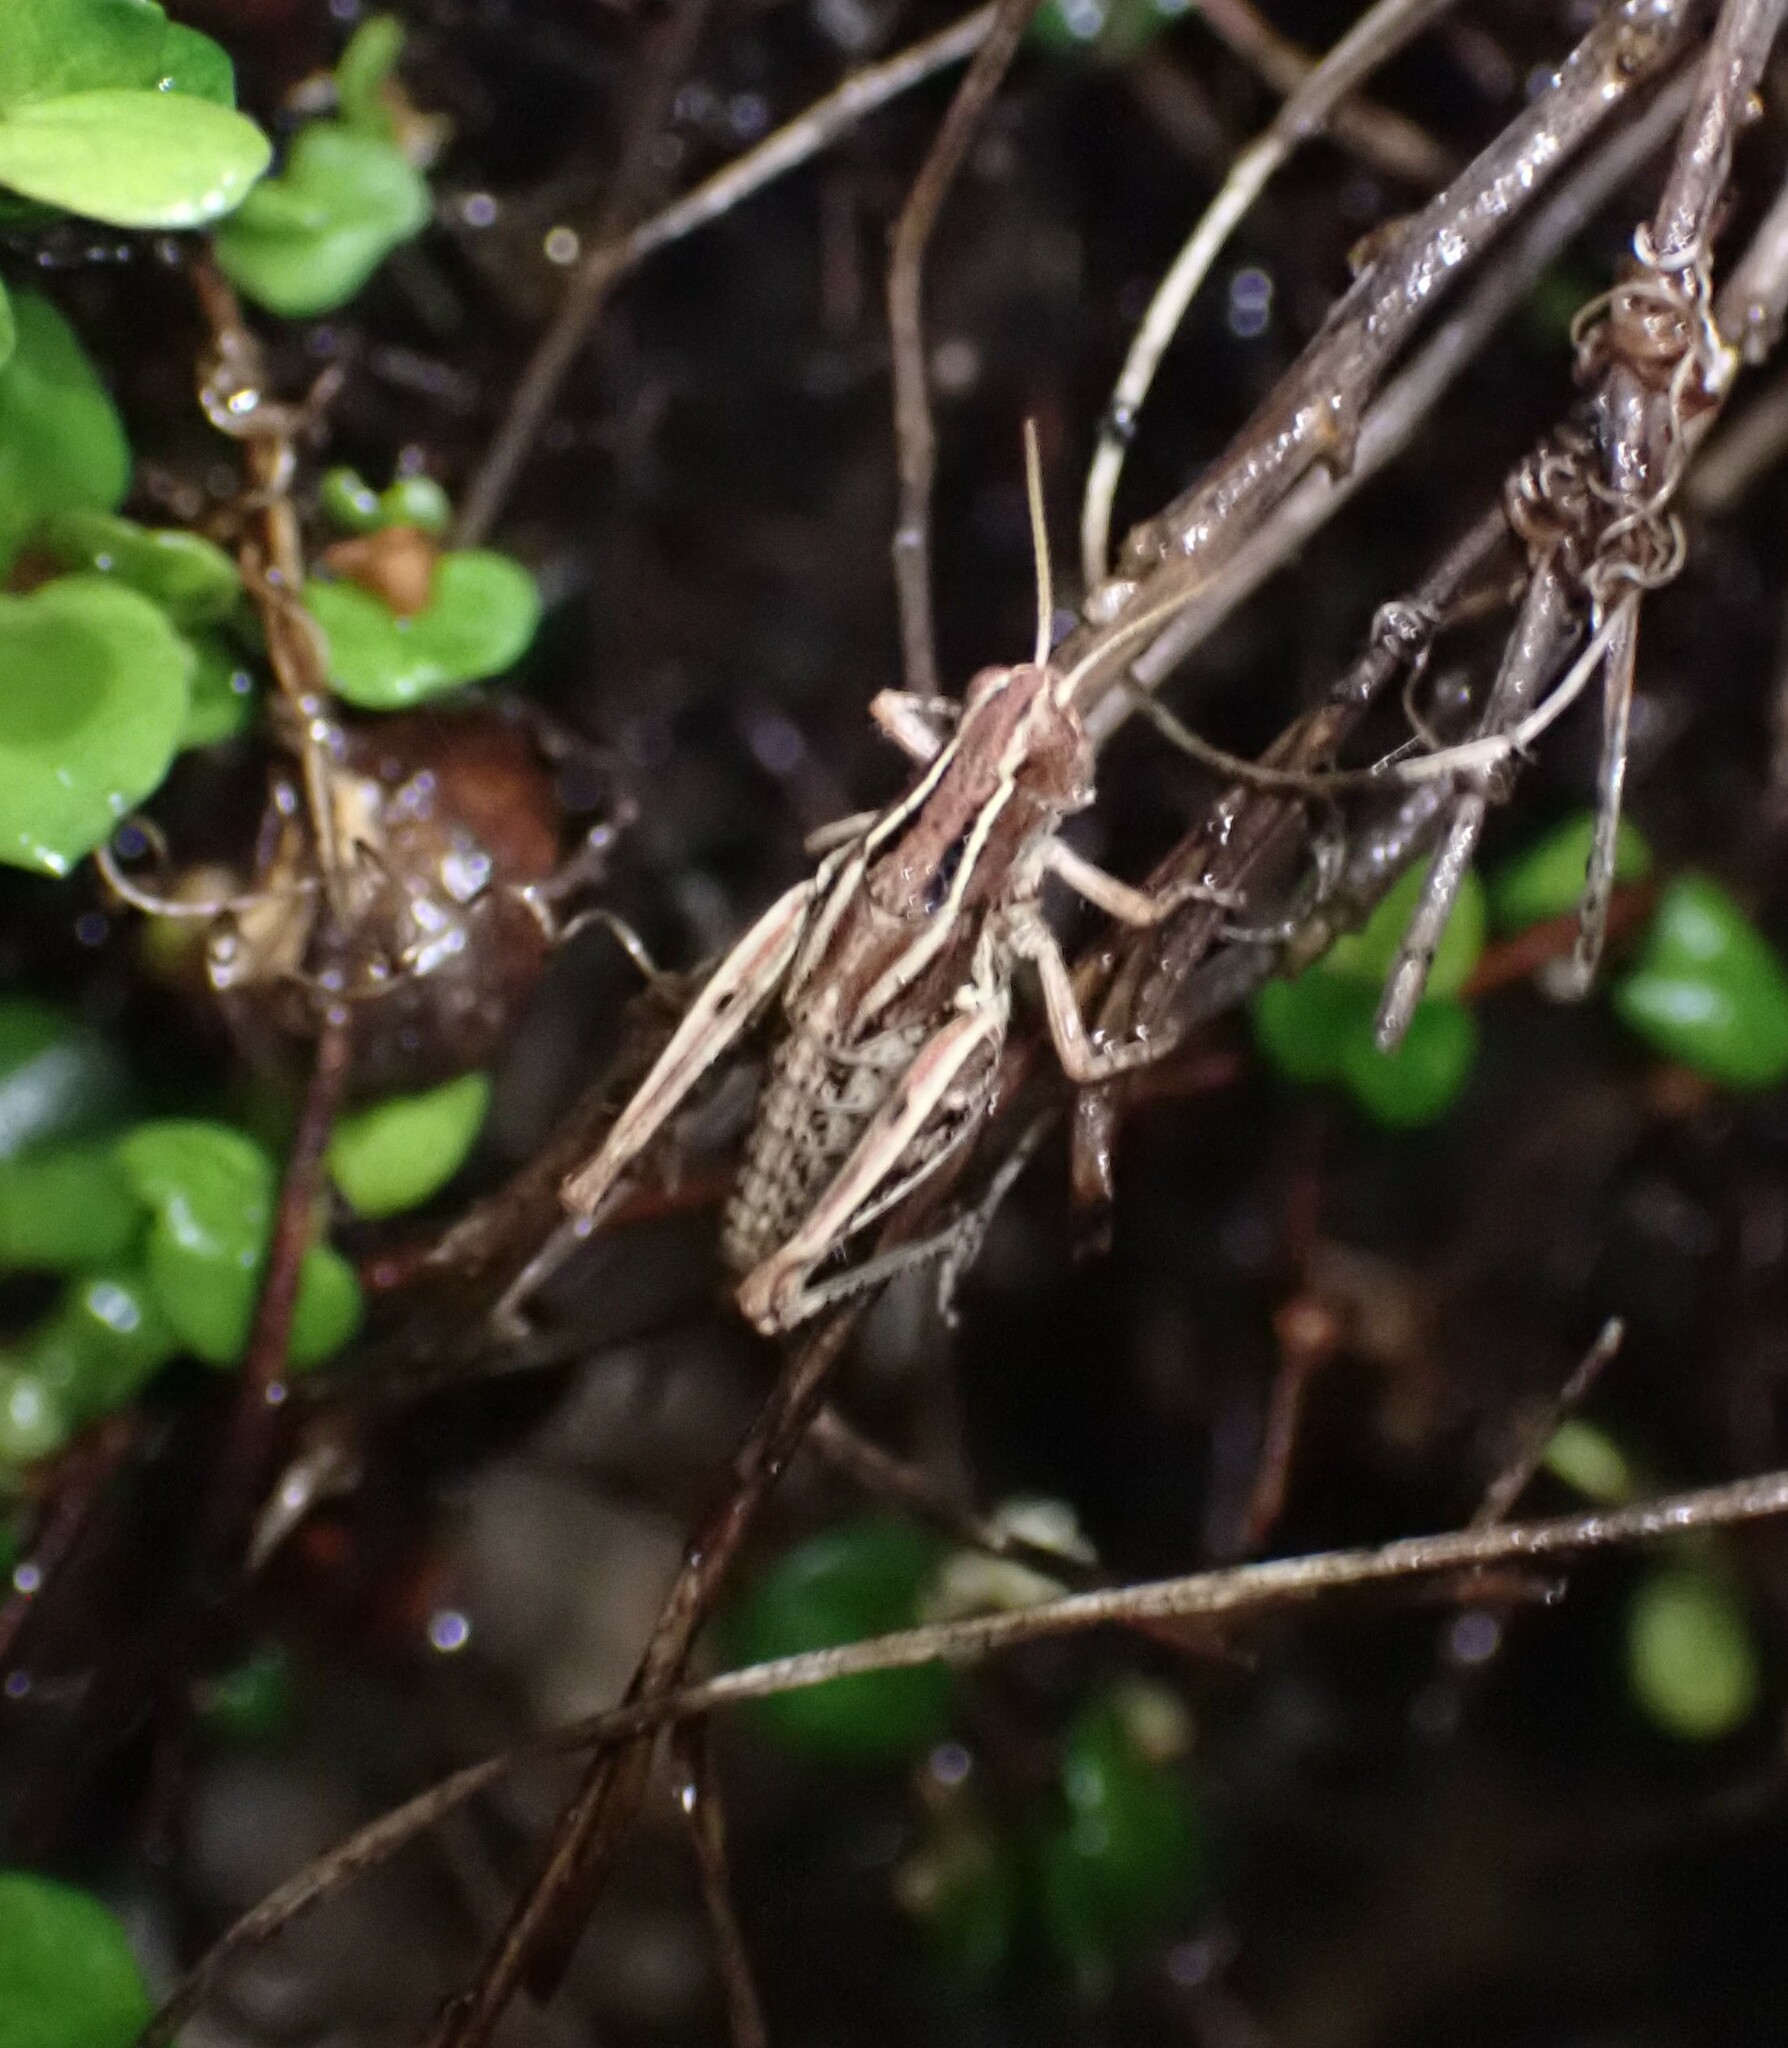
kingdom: Animalia
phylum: Arthropoda
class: Insecta
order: Orthoptera
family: Acrididae
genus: Phaulacridium
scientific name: Phaulacridium marginale
